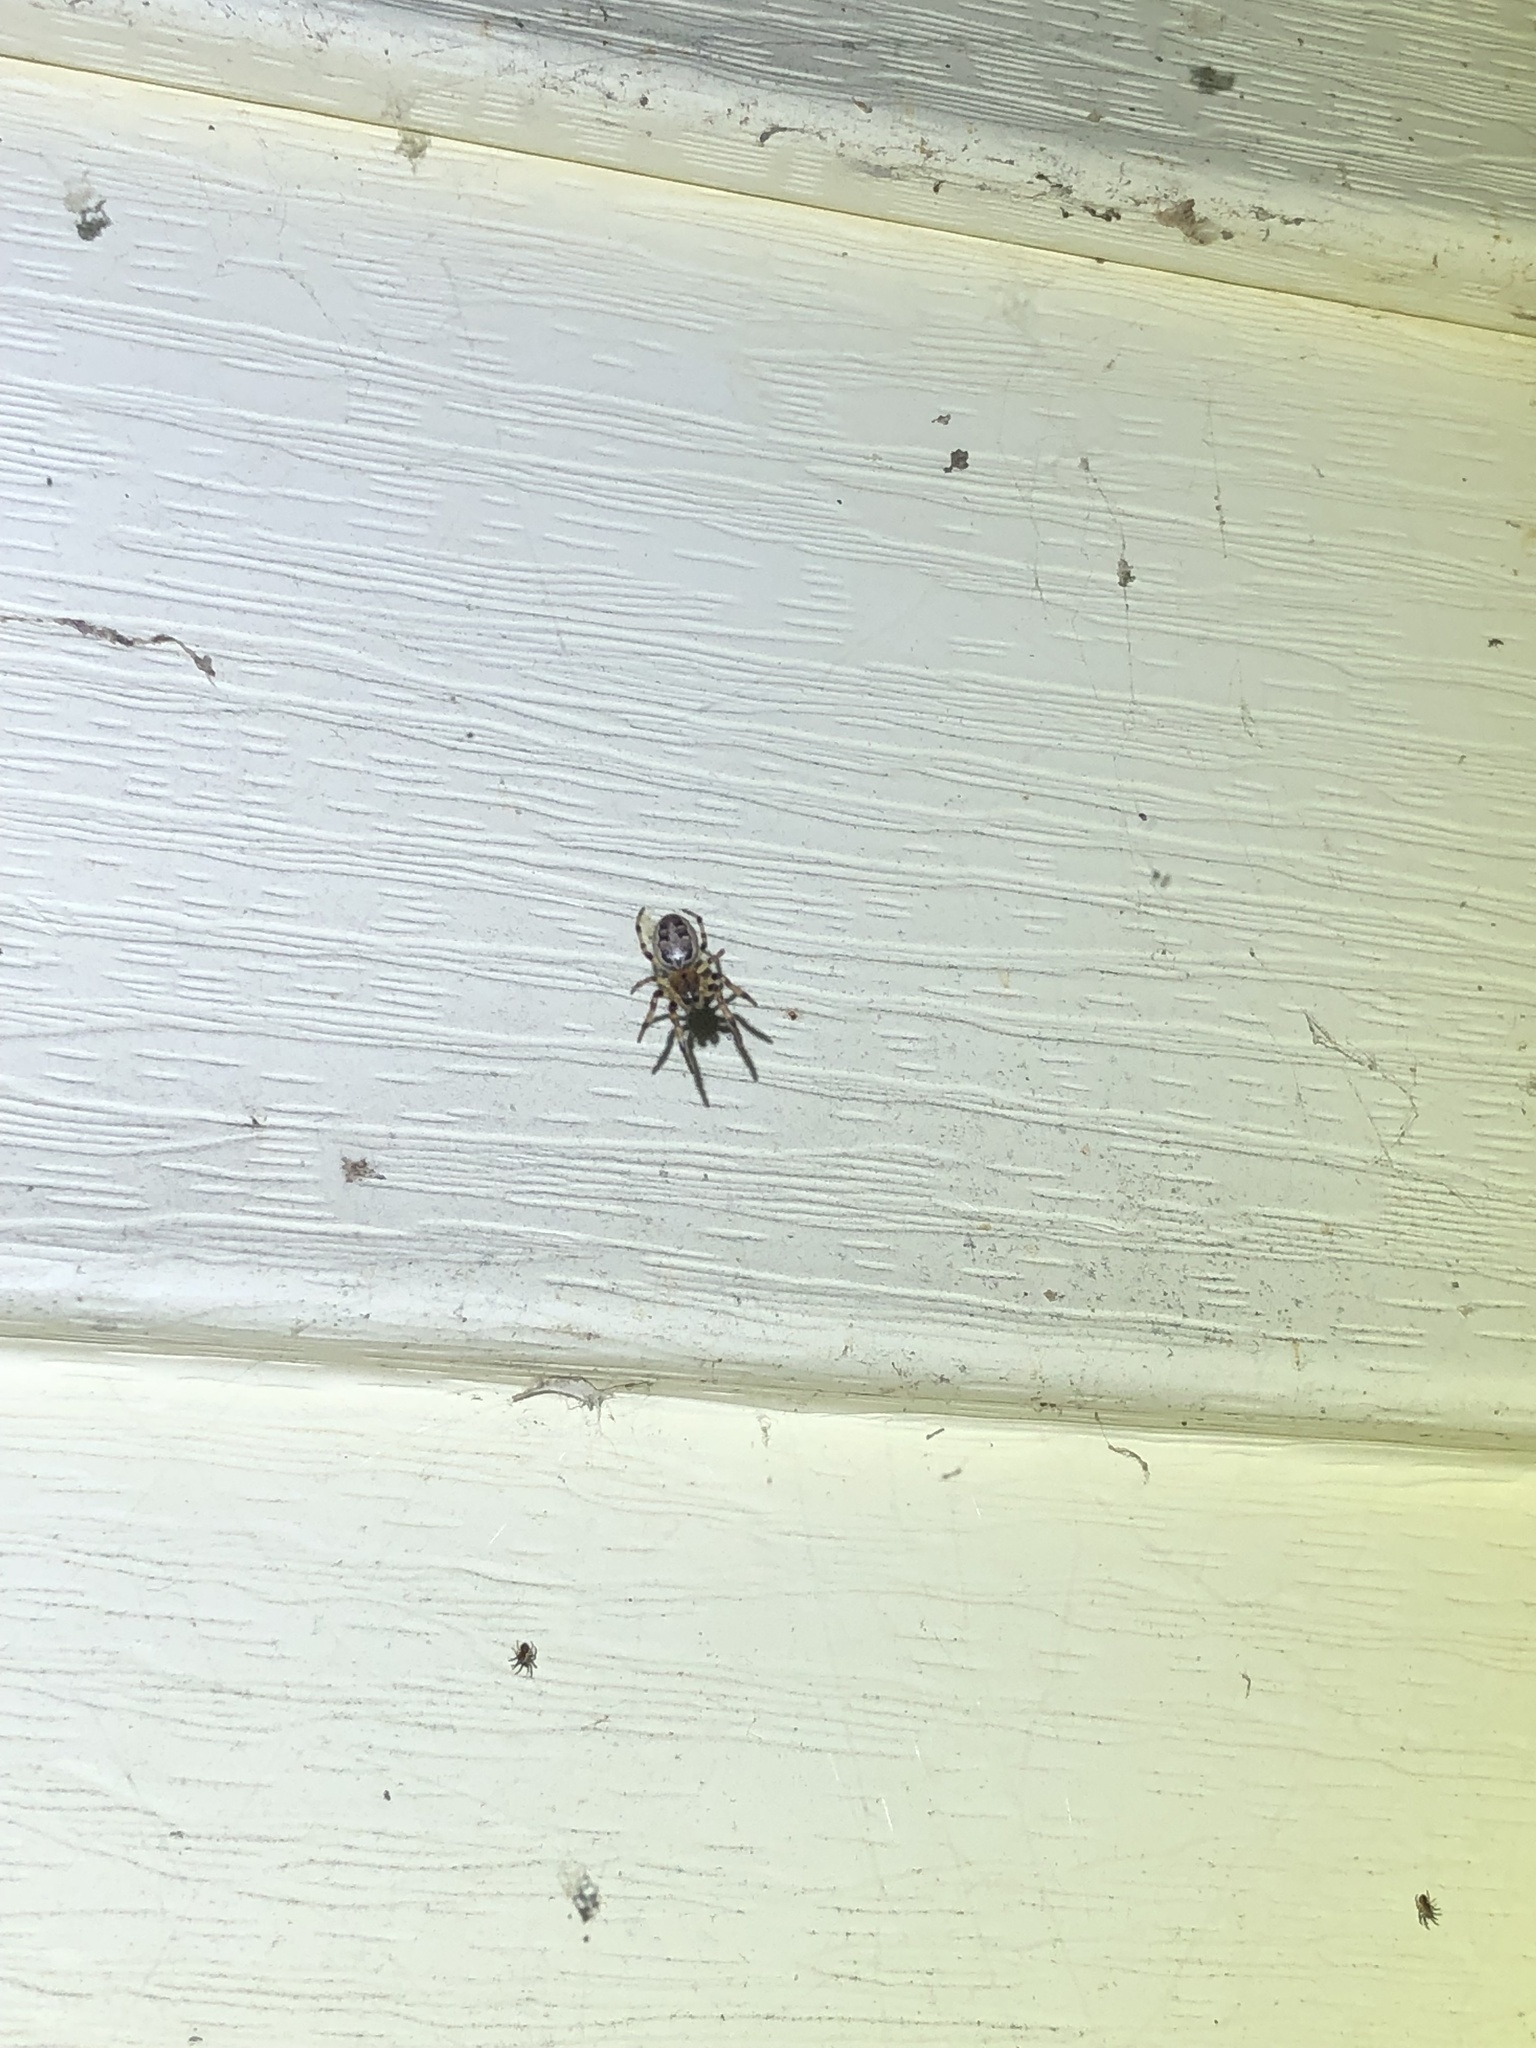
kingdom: Animalia
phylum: Arthropoda
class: Arachnida
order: Araneae
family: Araneidae
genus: Larinioides
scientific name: Larinioides cornutus
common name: Furrow orbweaver
